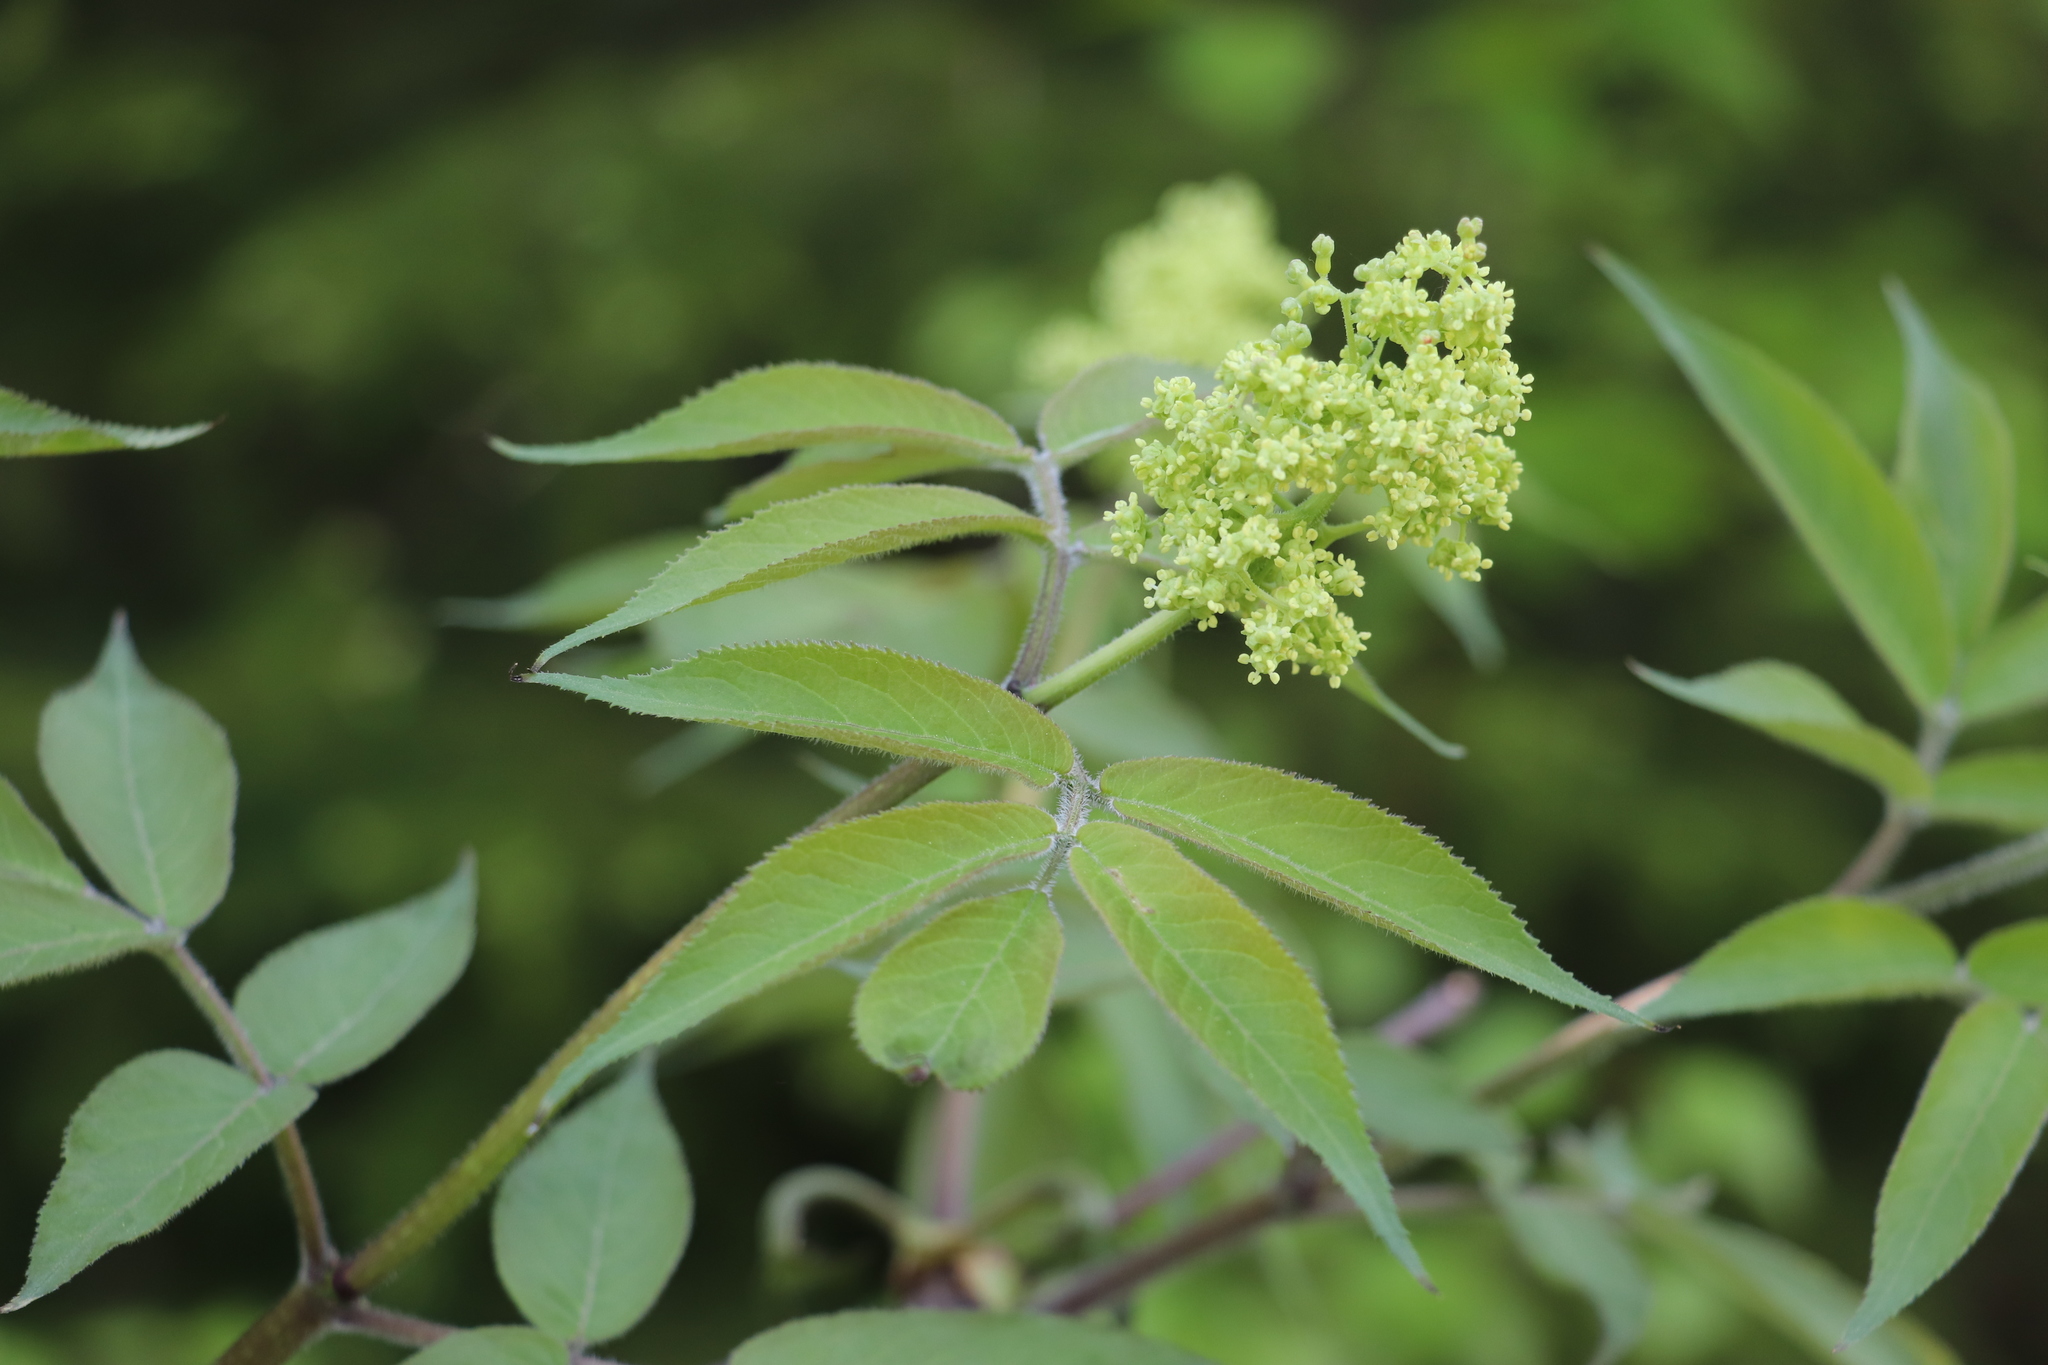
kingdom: Plantae
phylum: Tracheophyta
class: Magnoliopsida
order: Dipsacales
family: Viburnaceae
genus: Sambucus
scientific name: Sambucus sibirica
